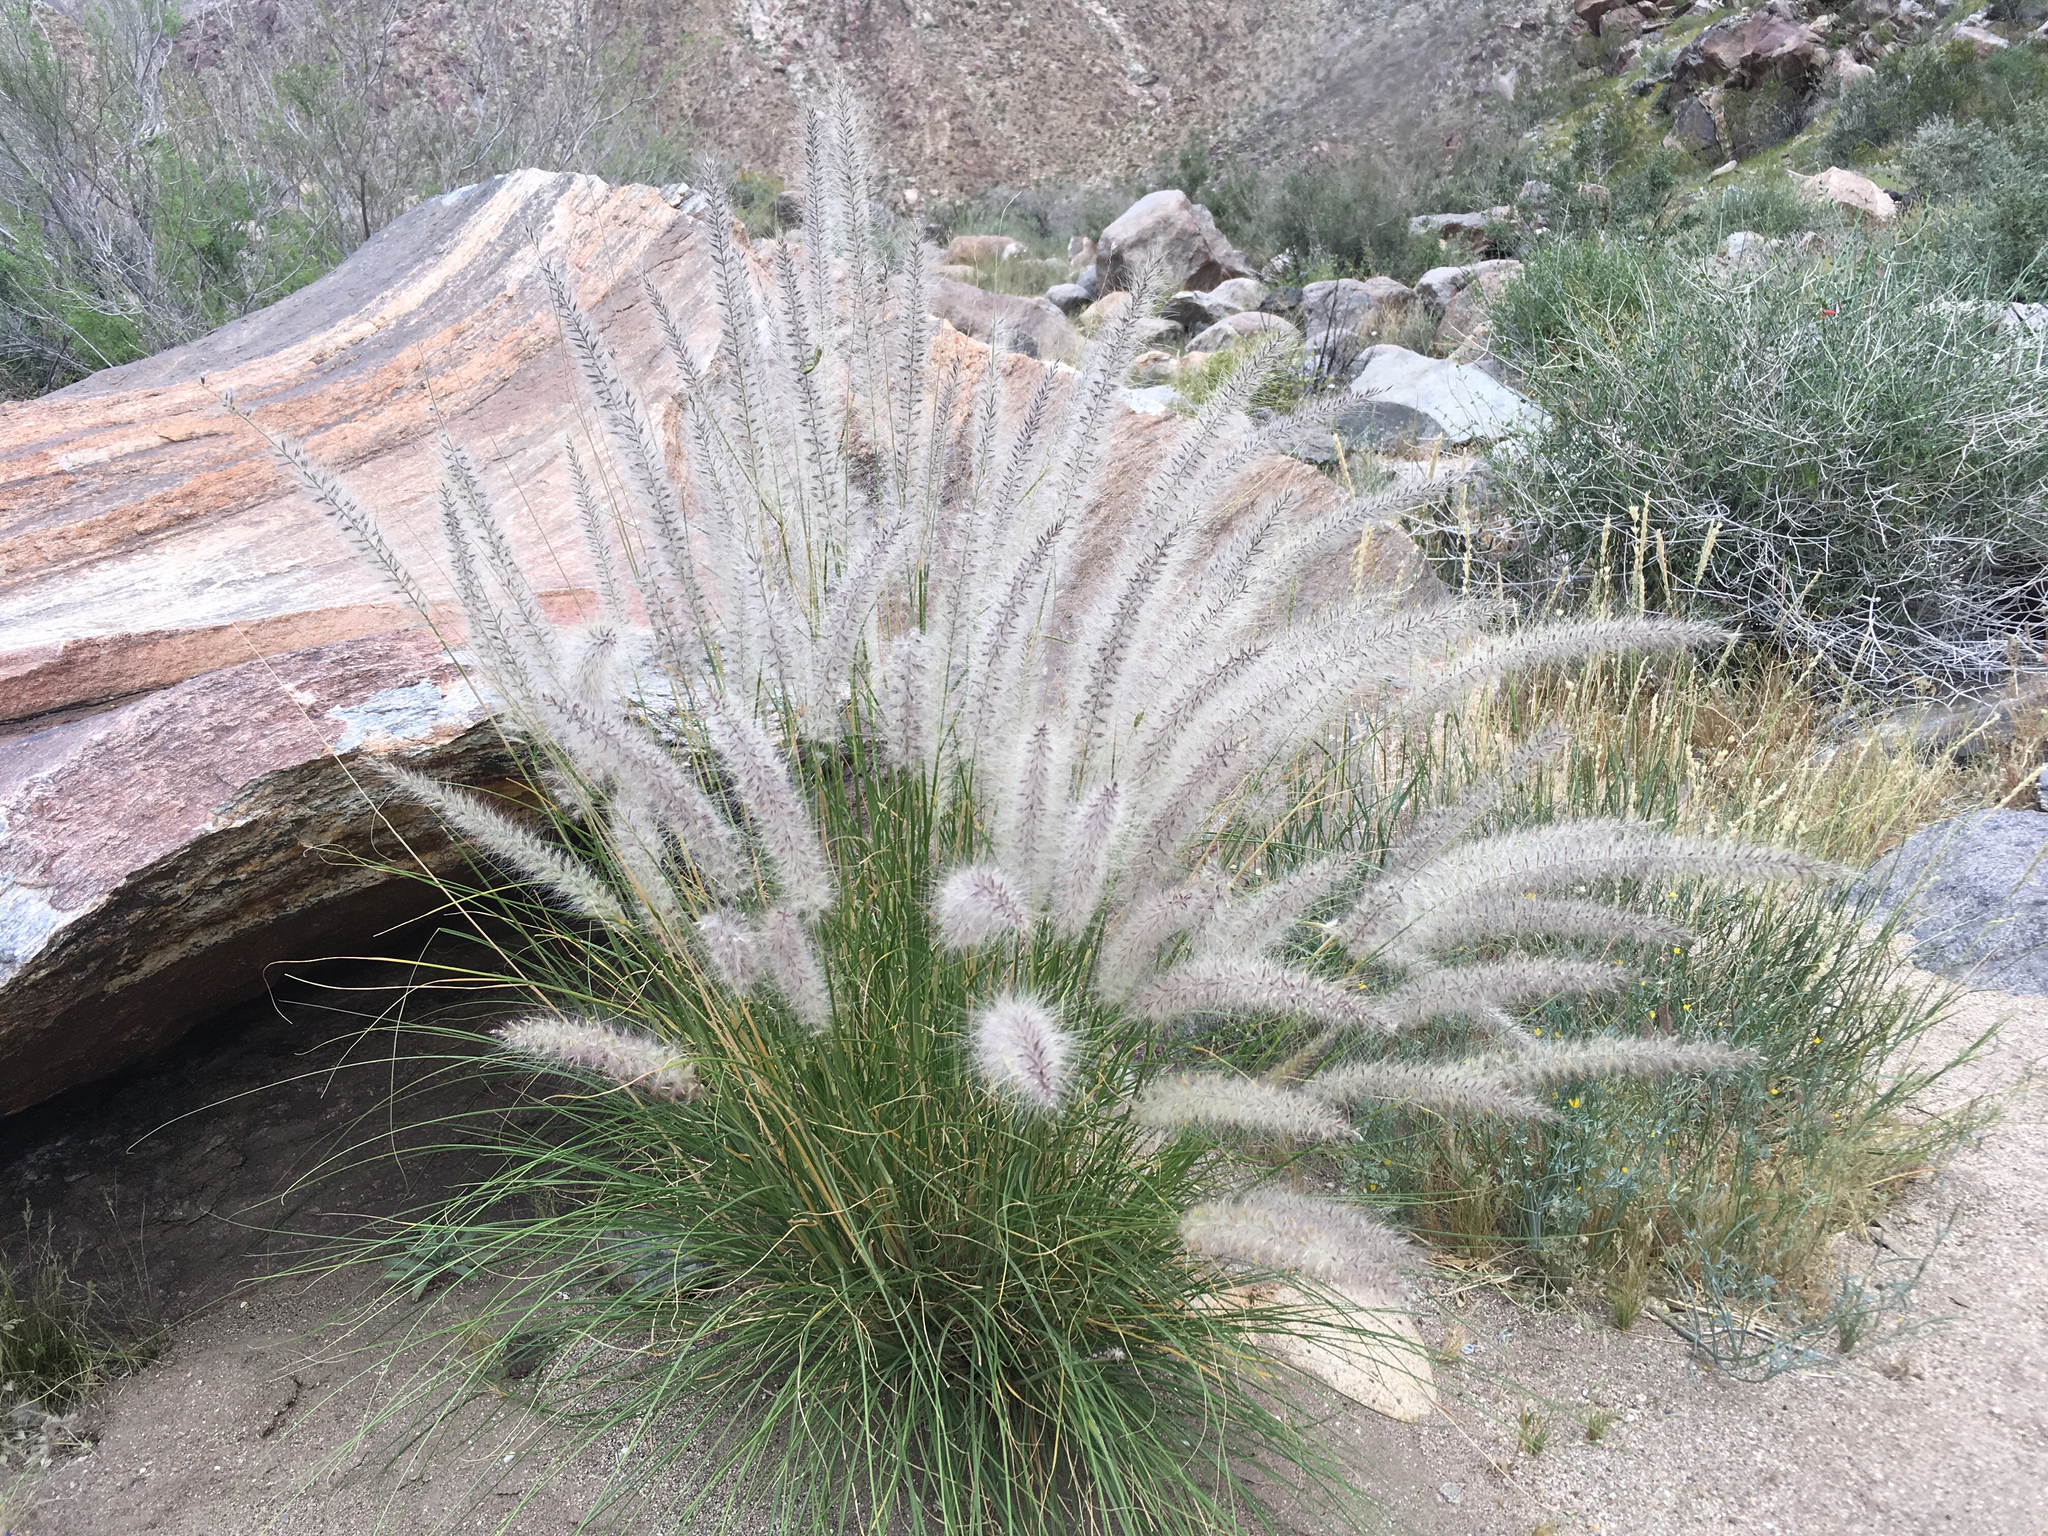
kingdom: Plantae
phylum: Tracheophyta
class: Liliopsida
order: Poales
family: Poaceae
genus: Cenchrus
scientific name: Cenchrus setaceus
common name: Crimson fountaingrass
